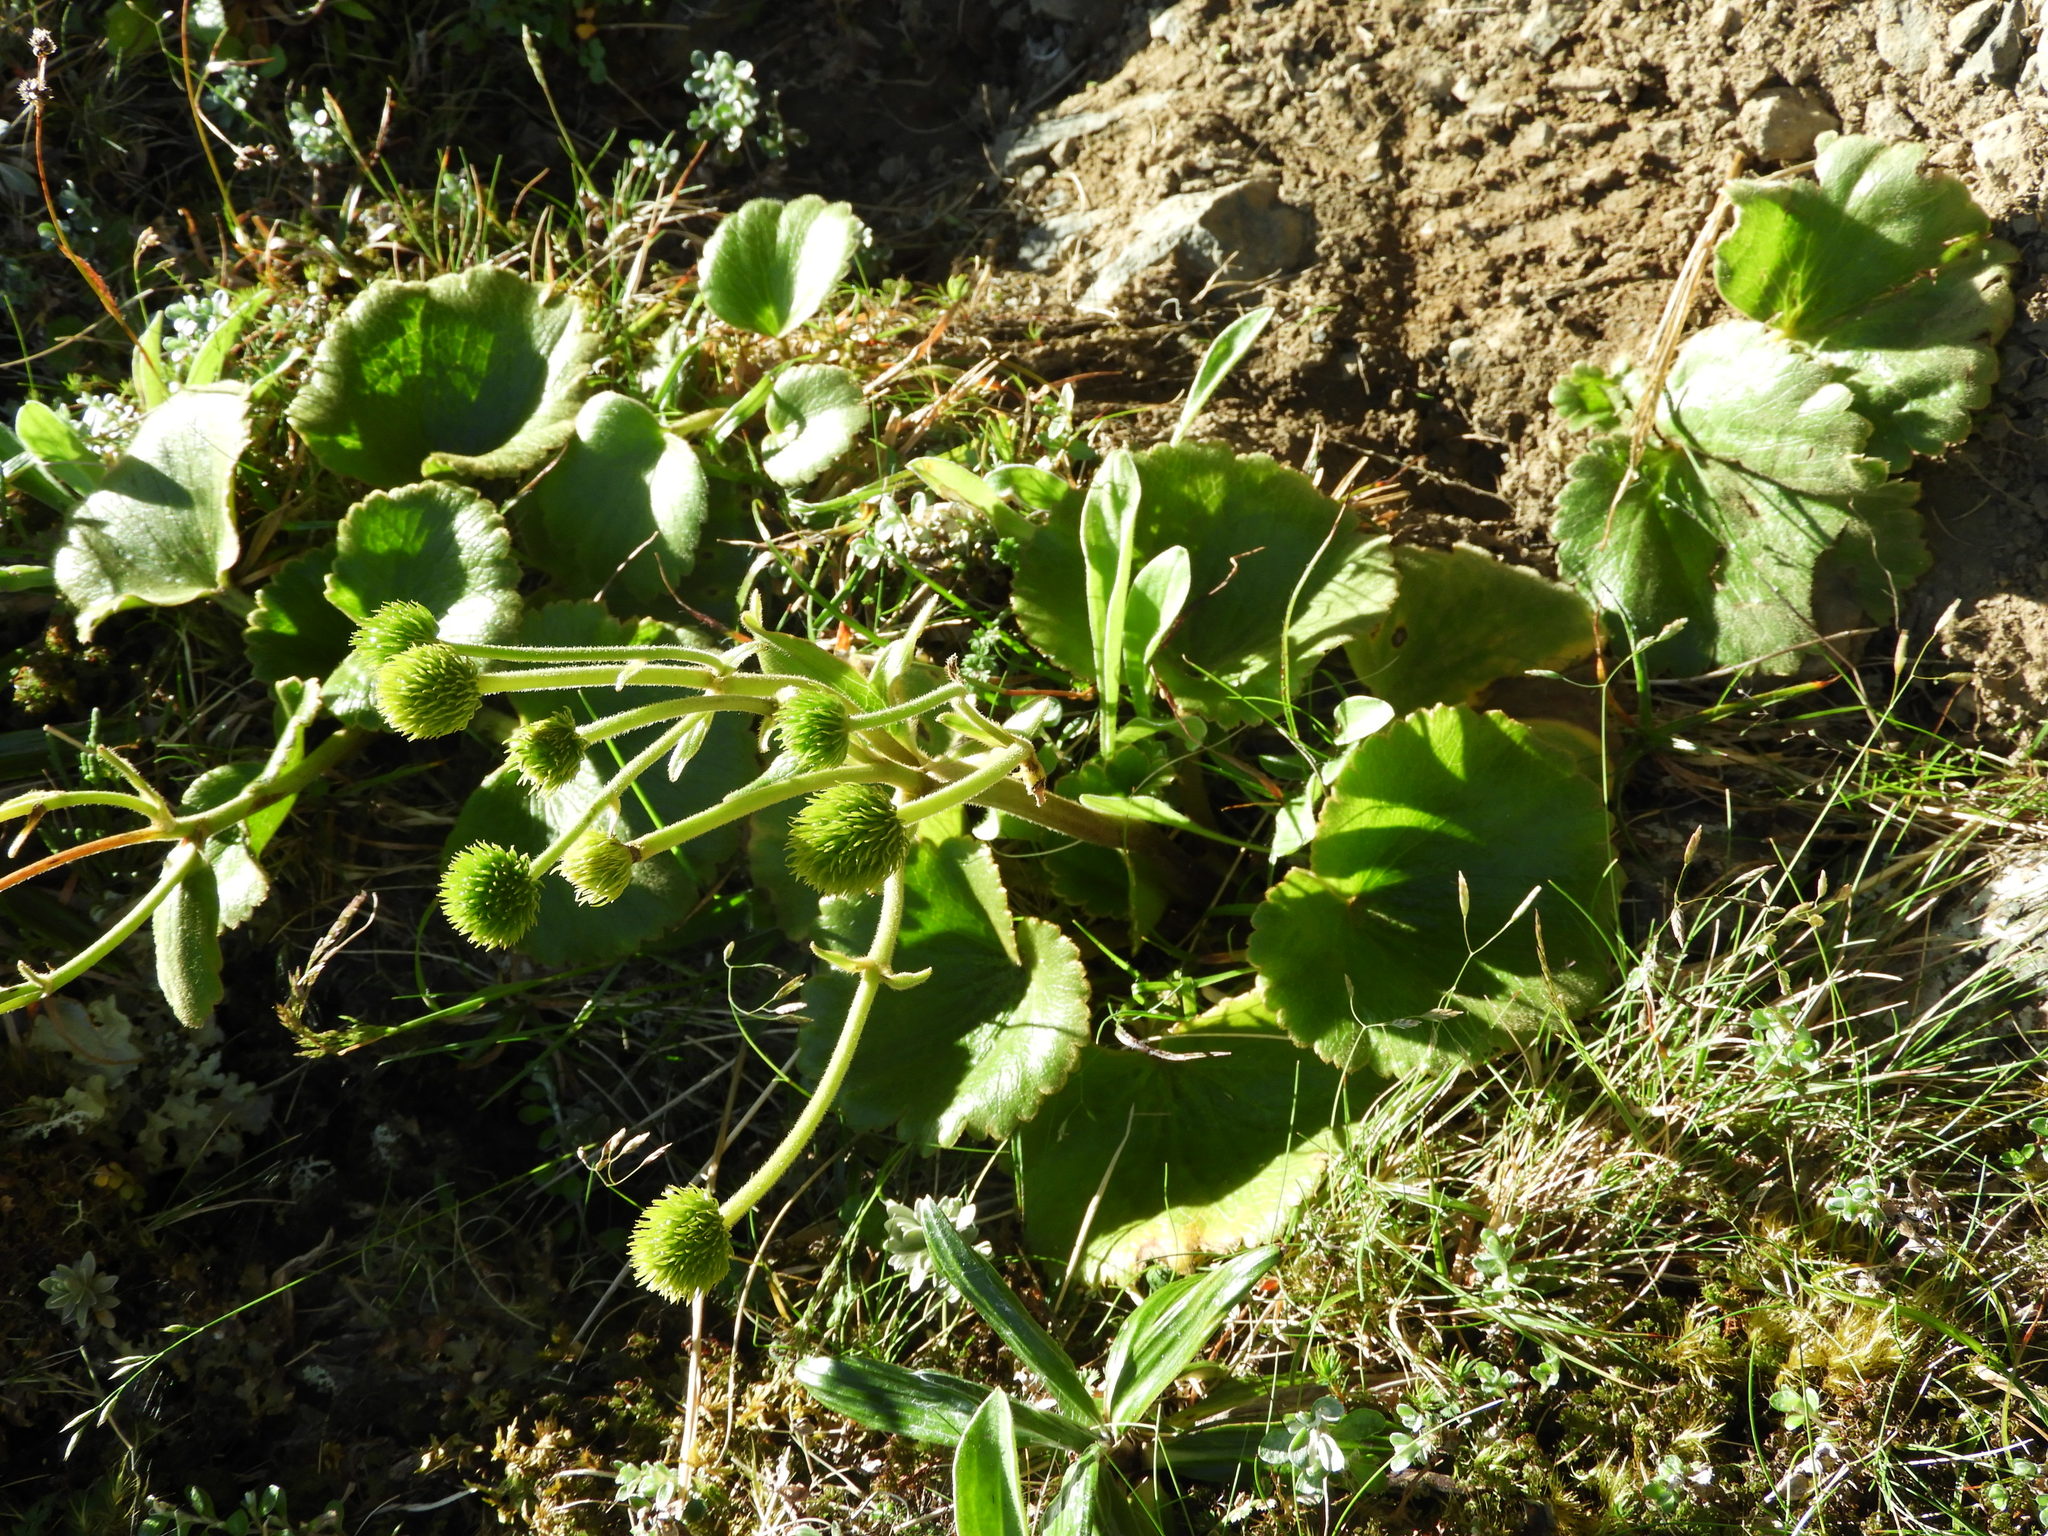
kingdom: Plantae
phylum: Tracheophyta
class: Magnoliopsida
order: Ranunculales
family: Ranunculaceae
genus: Ranunculus
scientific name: Ranunculus insignis
